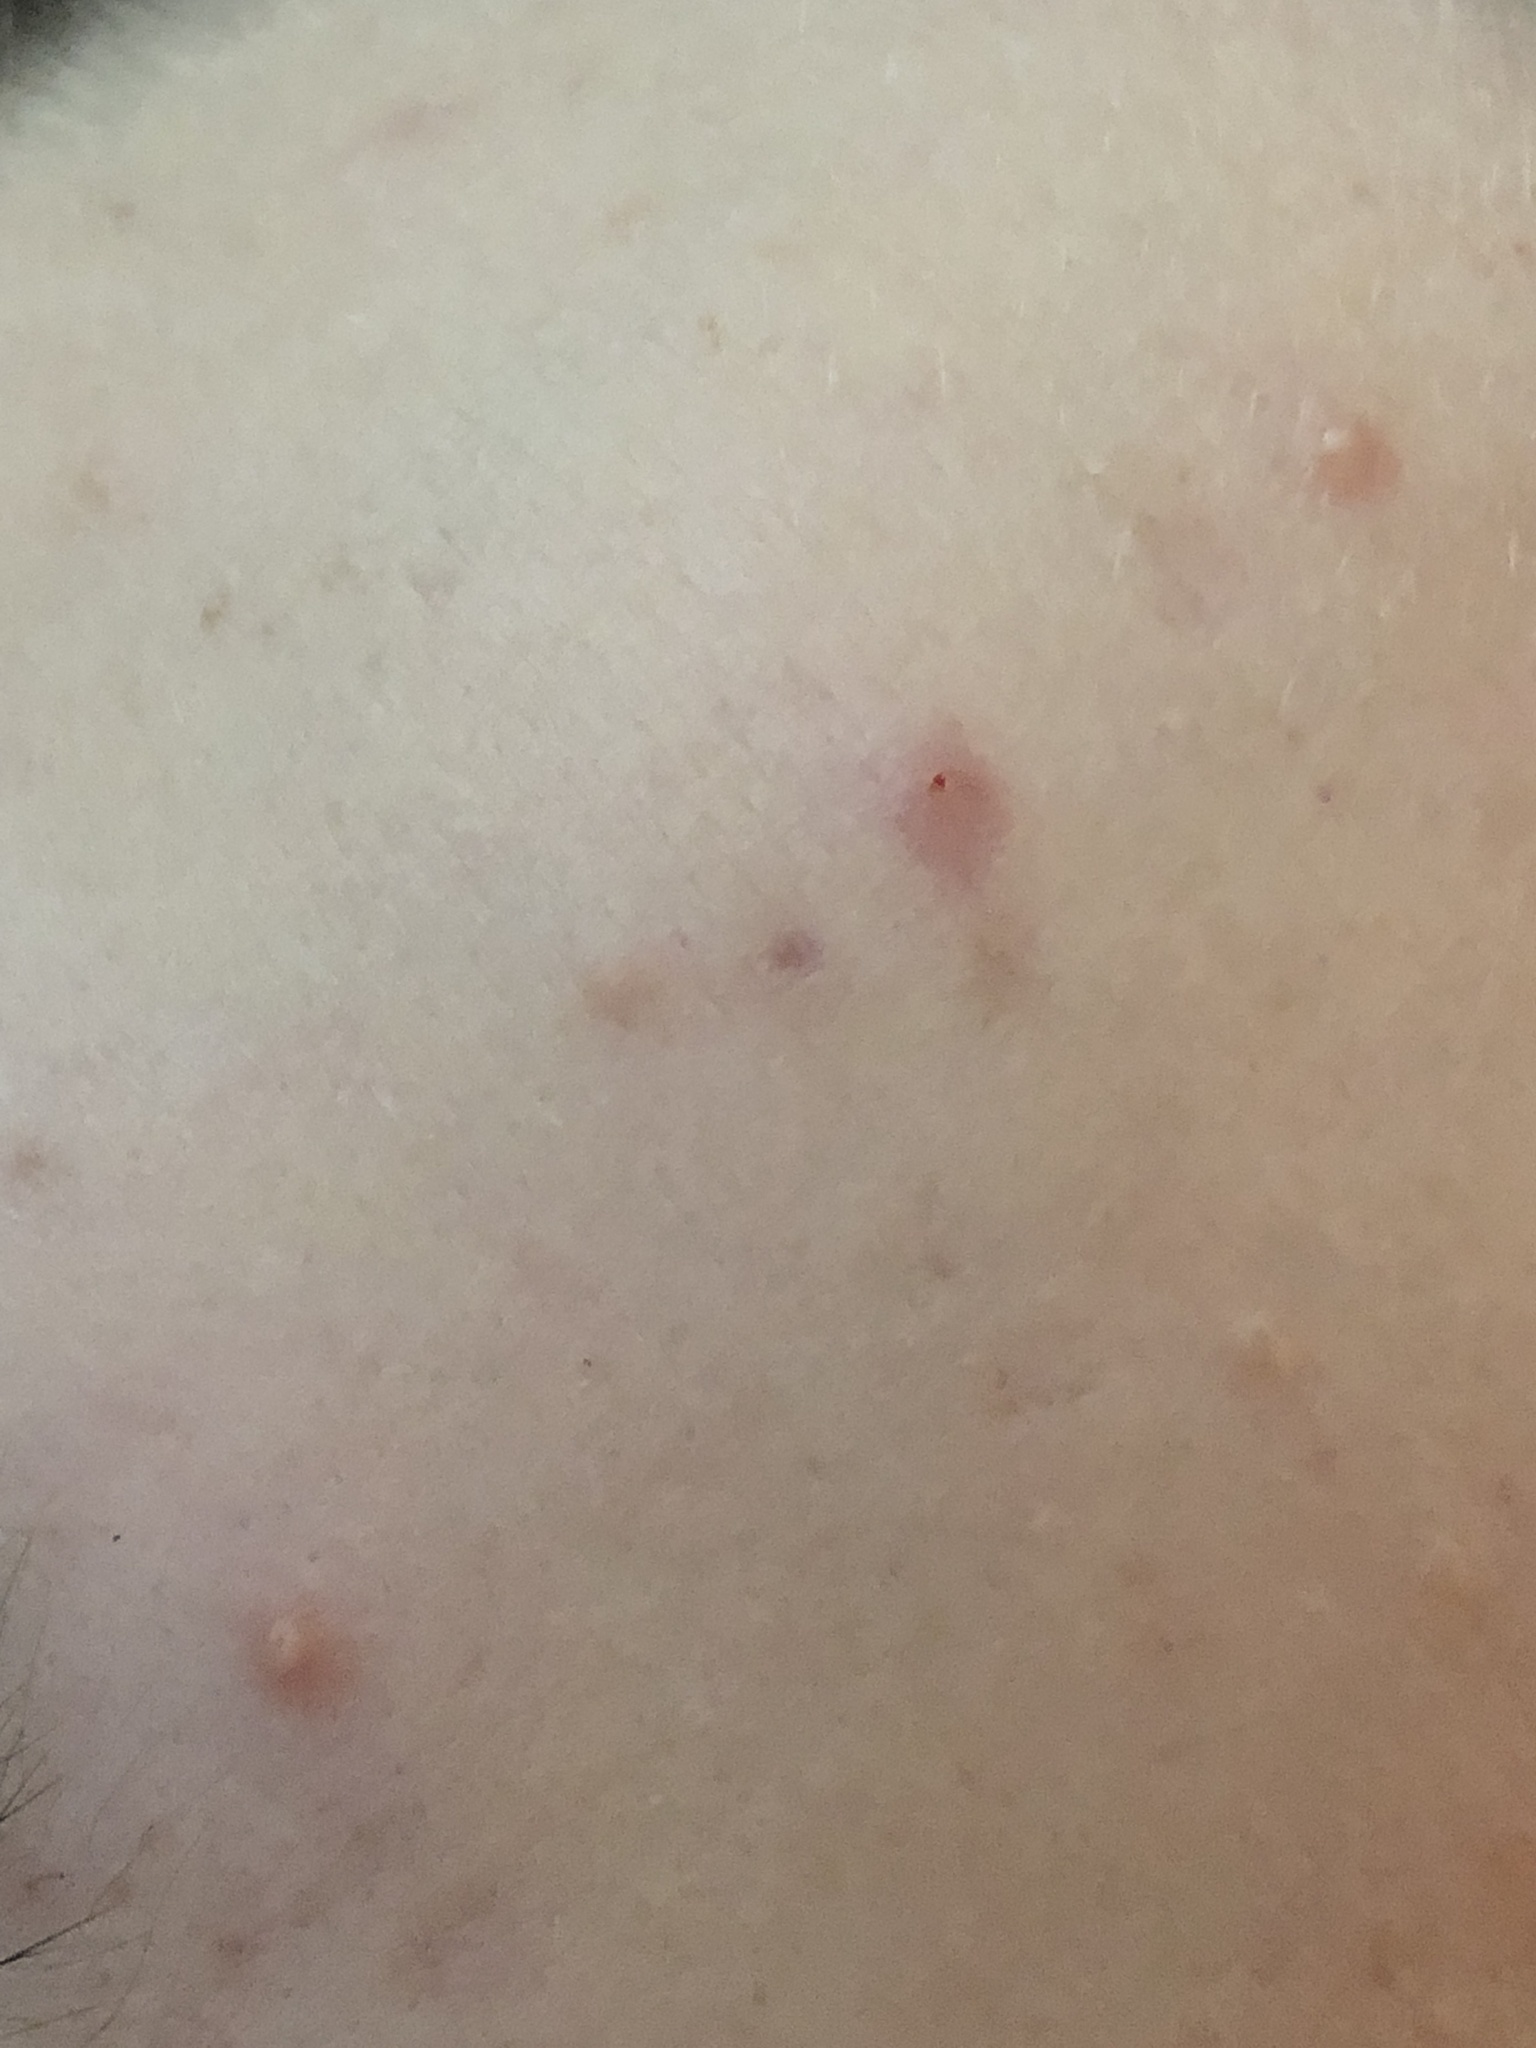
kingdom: Bacteria
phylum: Actinobacteriota
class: Actinomycetia
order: Propionibacteriales
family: Propionibacteriaceae
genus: Cutibacterium
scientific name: Cutibacterium acnes
